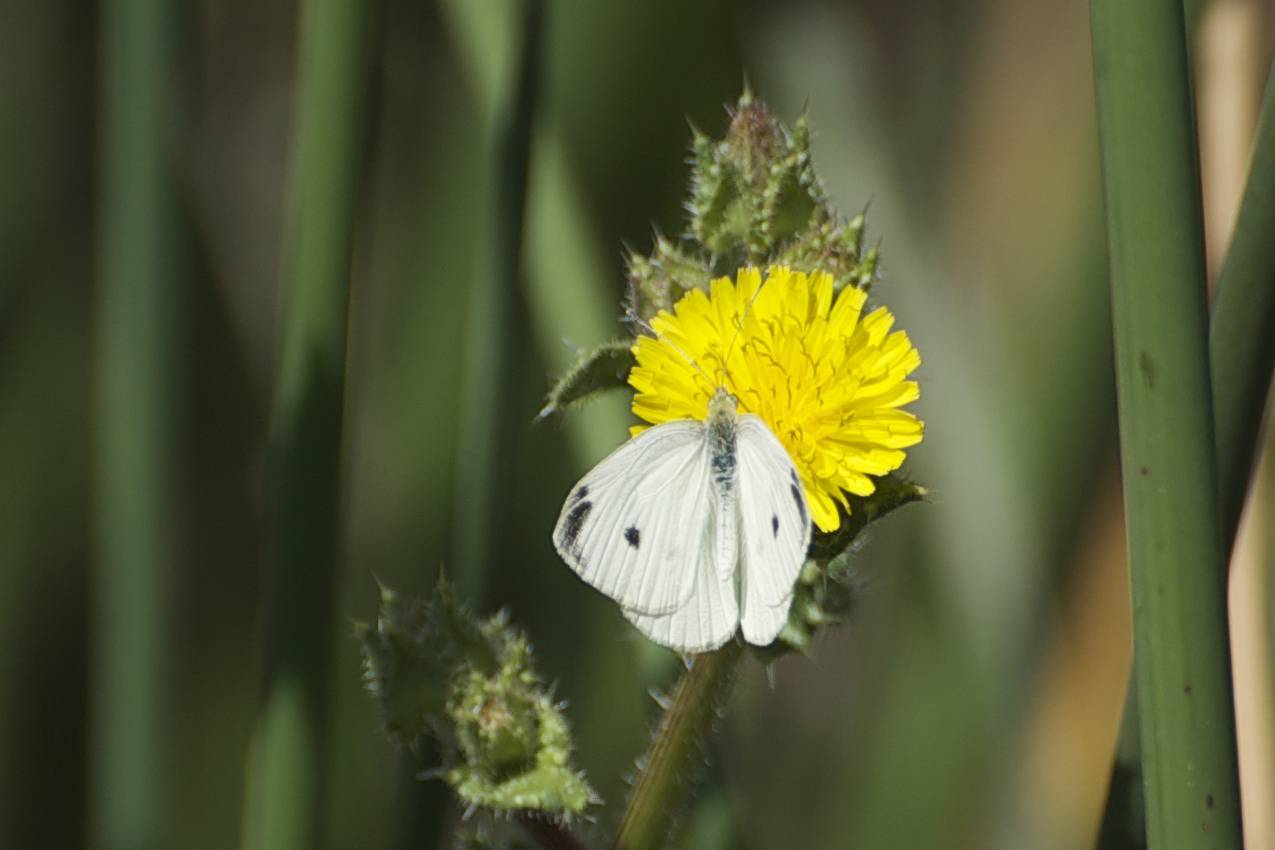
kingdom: Animalia
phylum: Arthropoda
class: Insecta
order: Lepidoptera
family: Pieridae
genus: Pieris
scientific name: Pieris rapae
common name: Small white
